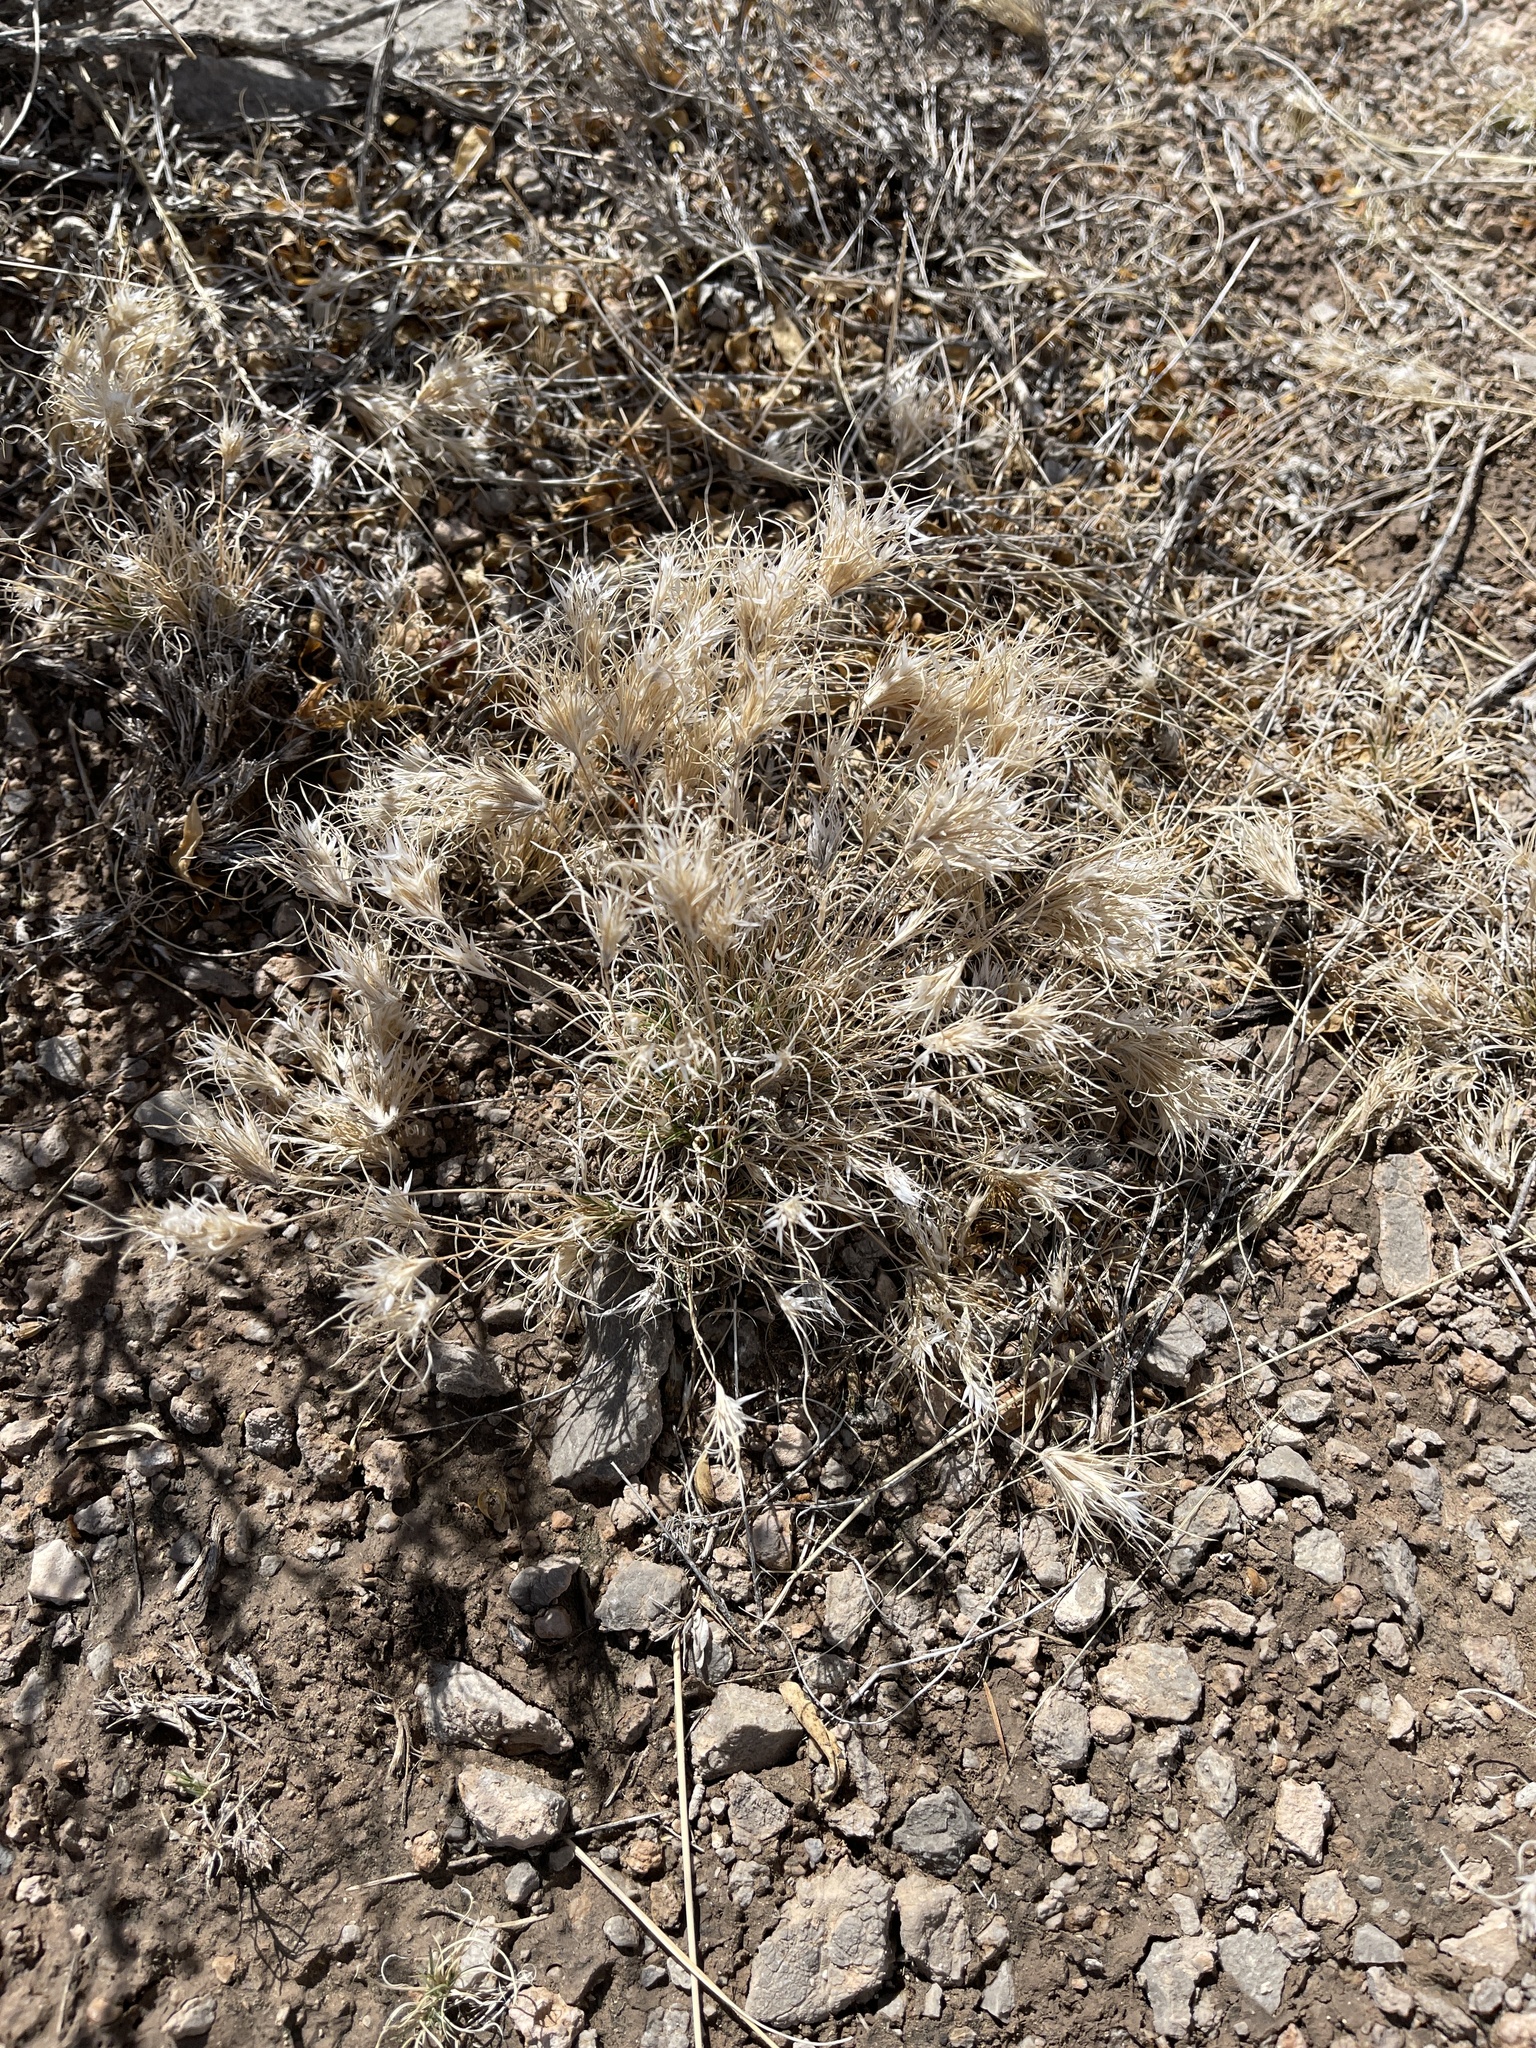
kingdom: Plantae
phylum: Tracheophyta
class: Liliopsida
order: Poales
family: Poaceae
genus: Dasyochloa
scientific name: Dasyochloa pulchella
